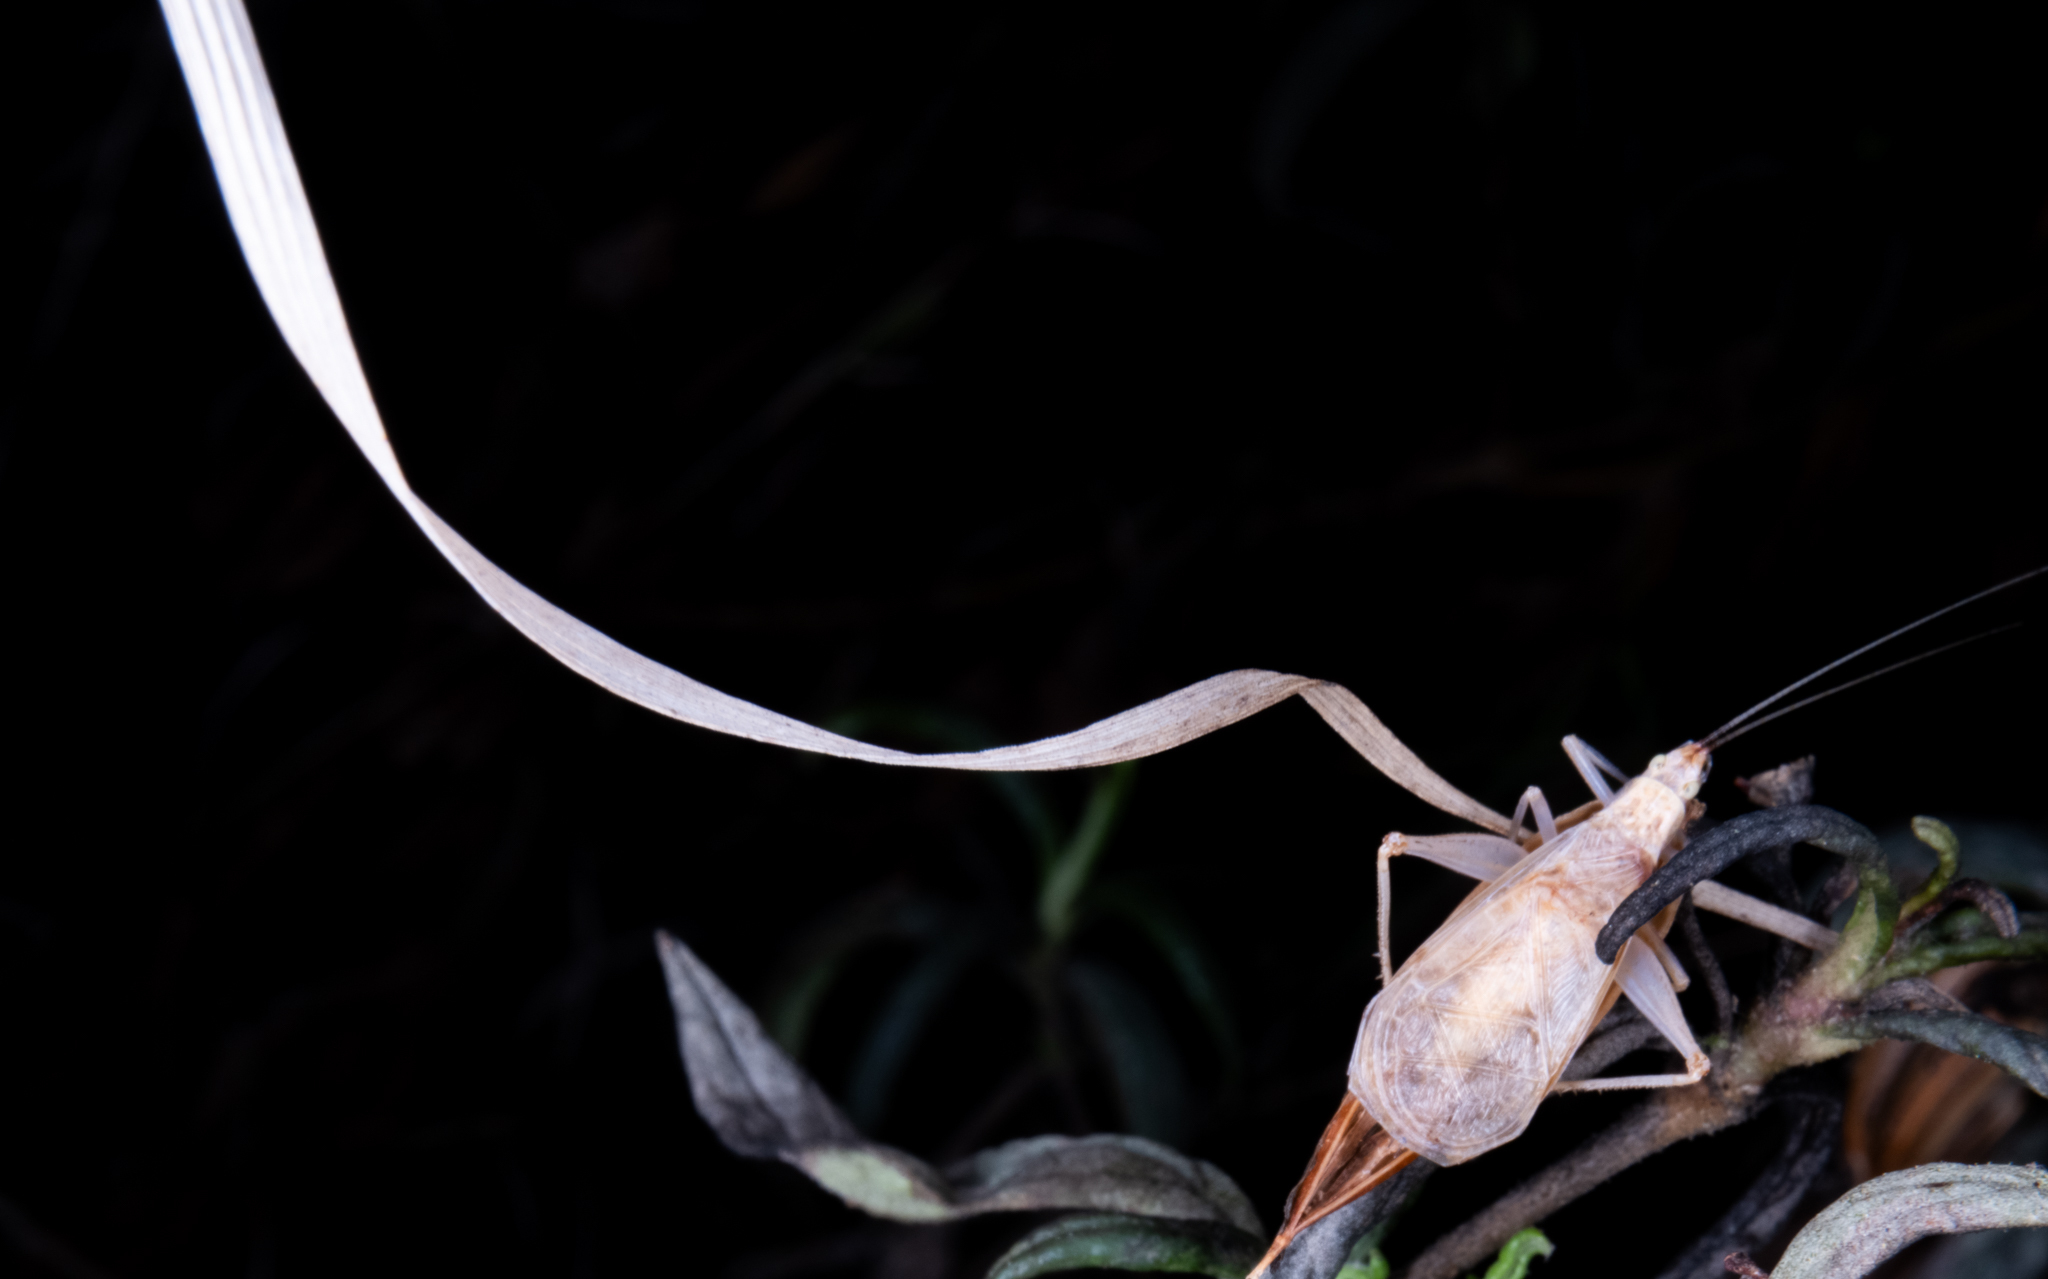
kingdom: Animalia
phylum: Arthropoda
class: Insecta
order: Orthoptera
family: Gryllidae
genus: Oecanthus
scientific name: Oecanthus californicus
